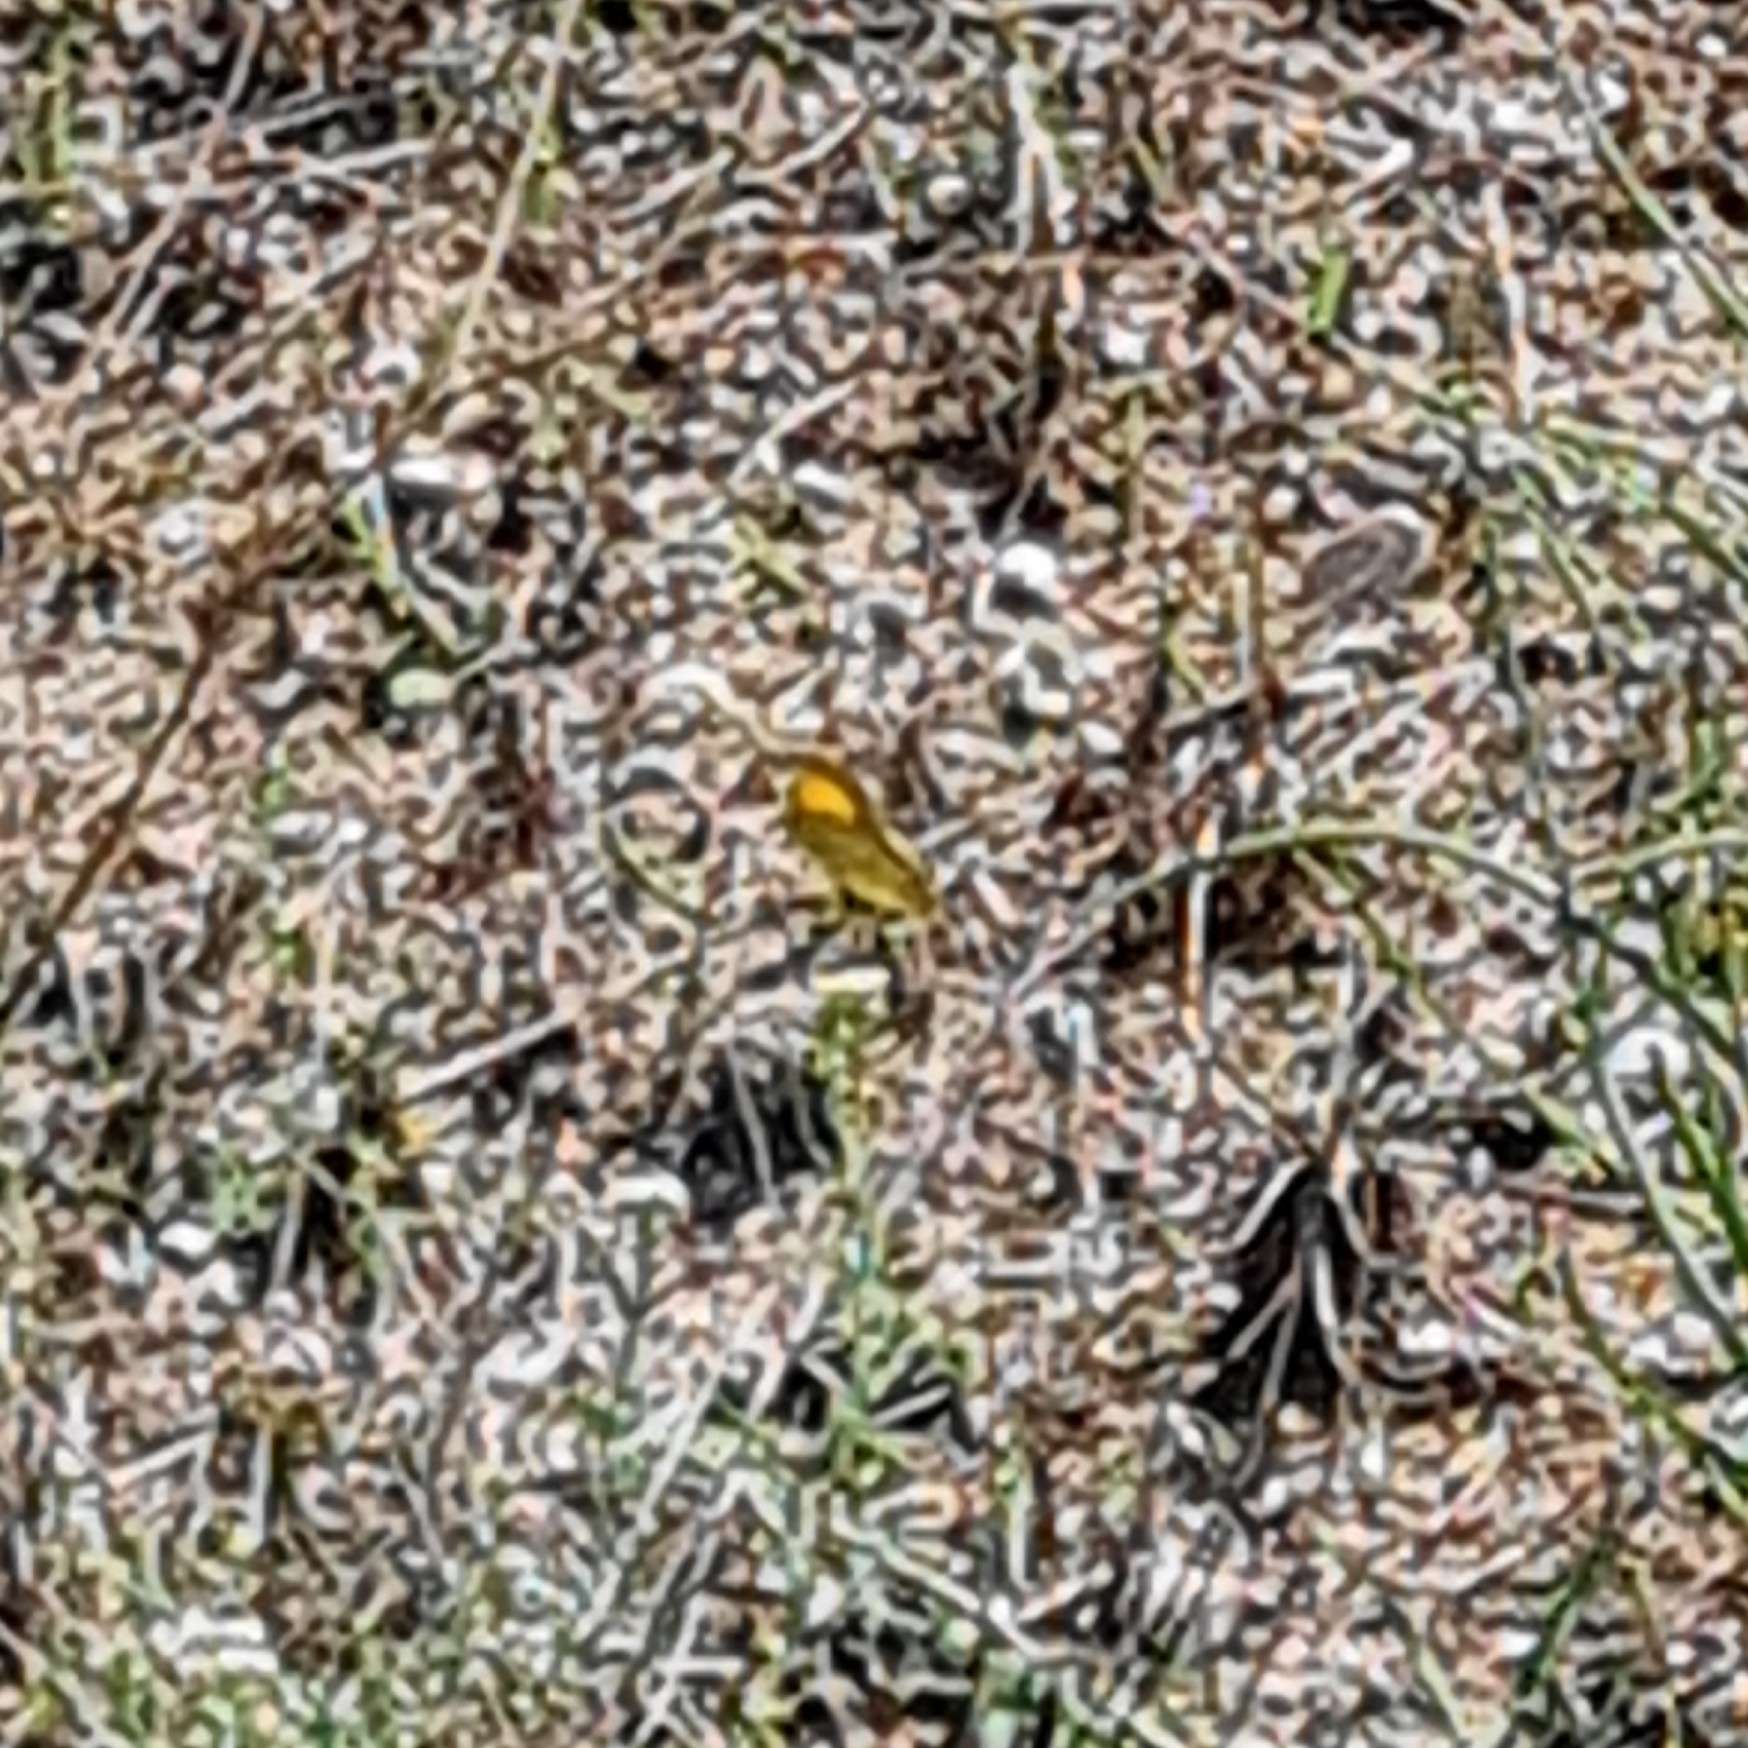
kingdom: Animalia
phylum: Arthropoda
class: Insecta
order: Lepidoptera
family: Pieridae
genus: Colias
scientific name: Colias croceus
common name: Clouded yellow
